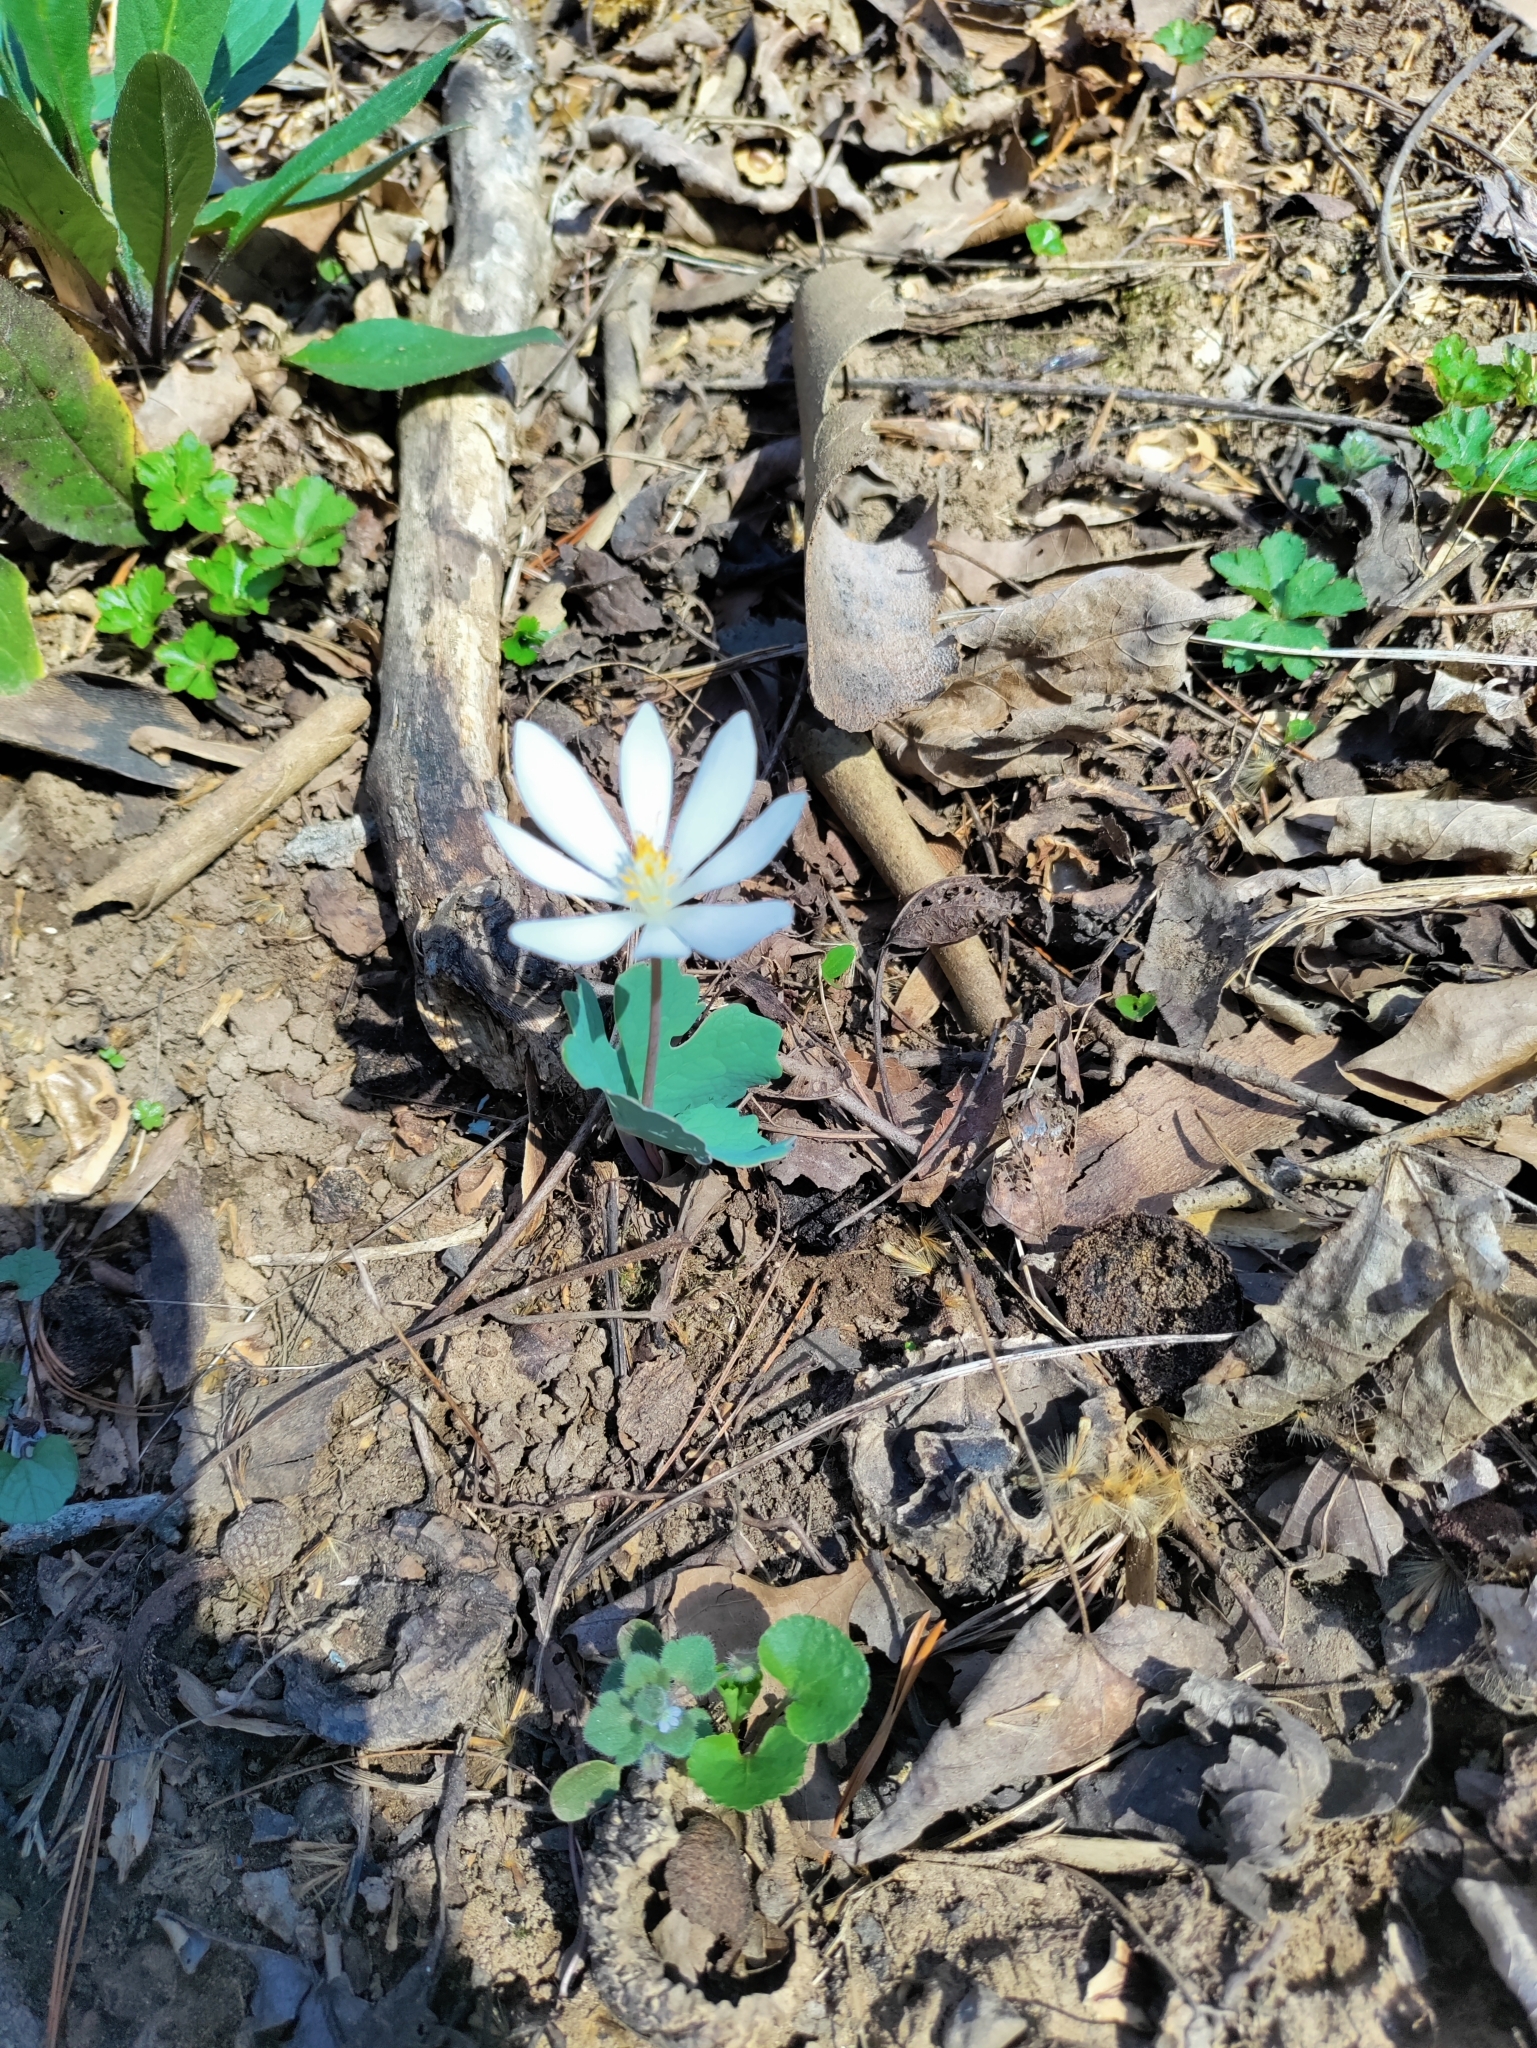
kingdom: Plantae
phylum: Tracheophyta
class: Magnoliopsida
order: Ranunculales
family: Papaveraceae
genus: Sanguinaria
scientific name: Sanguinaria canadensis
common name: Bloodroot
